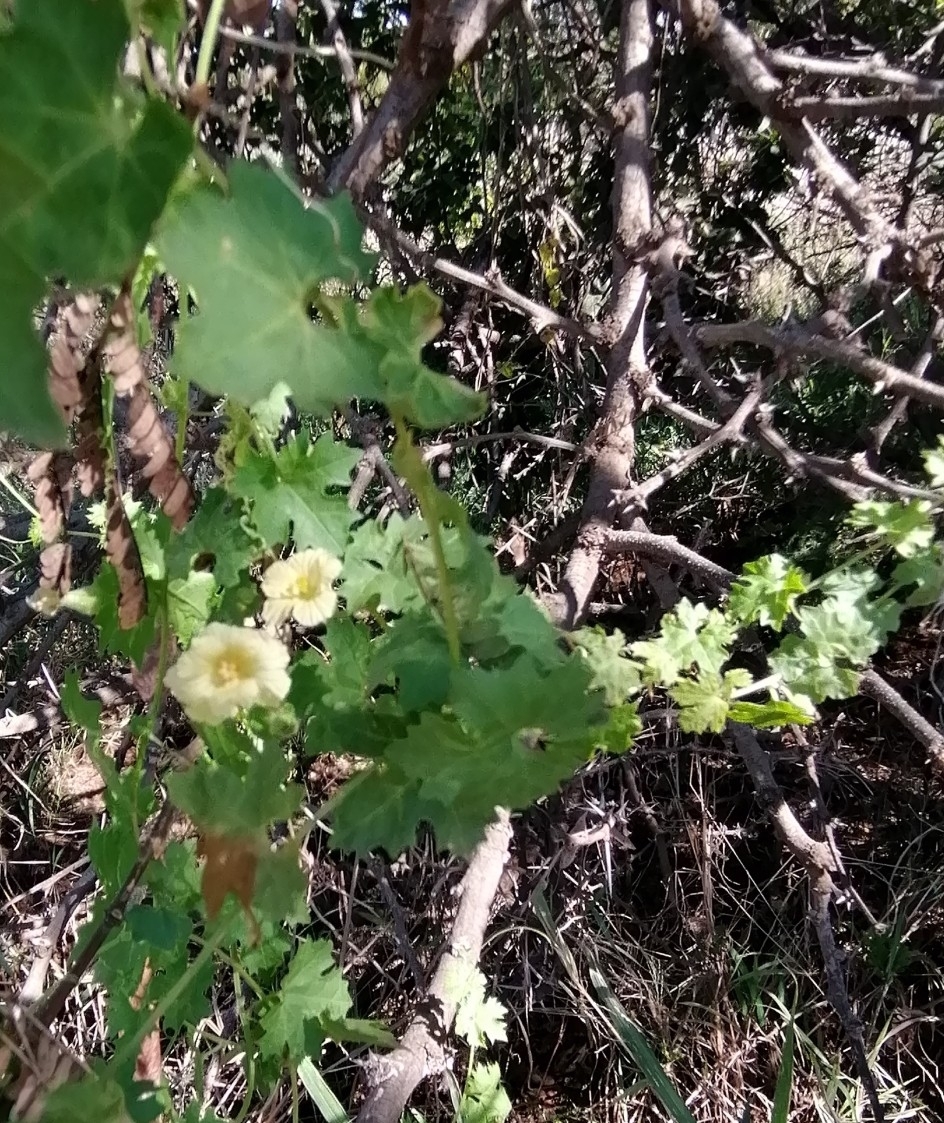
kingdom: Plantae
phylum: Tracheophyta
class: Magnoliopsida
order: Cucurbitales
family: Cucurbitaceae
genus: Momordica
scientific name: Momordica balsamina
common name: Southern balsampear
